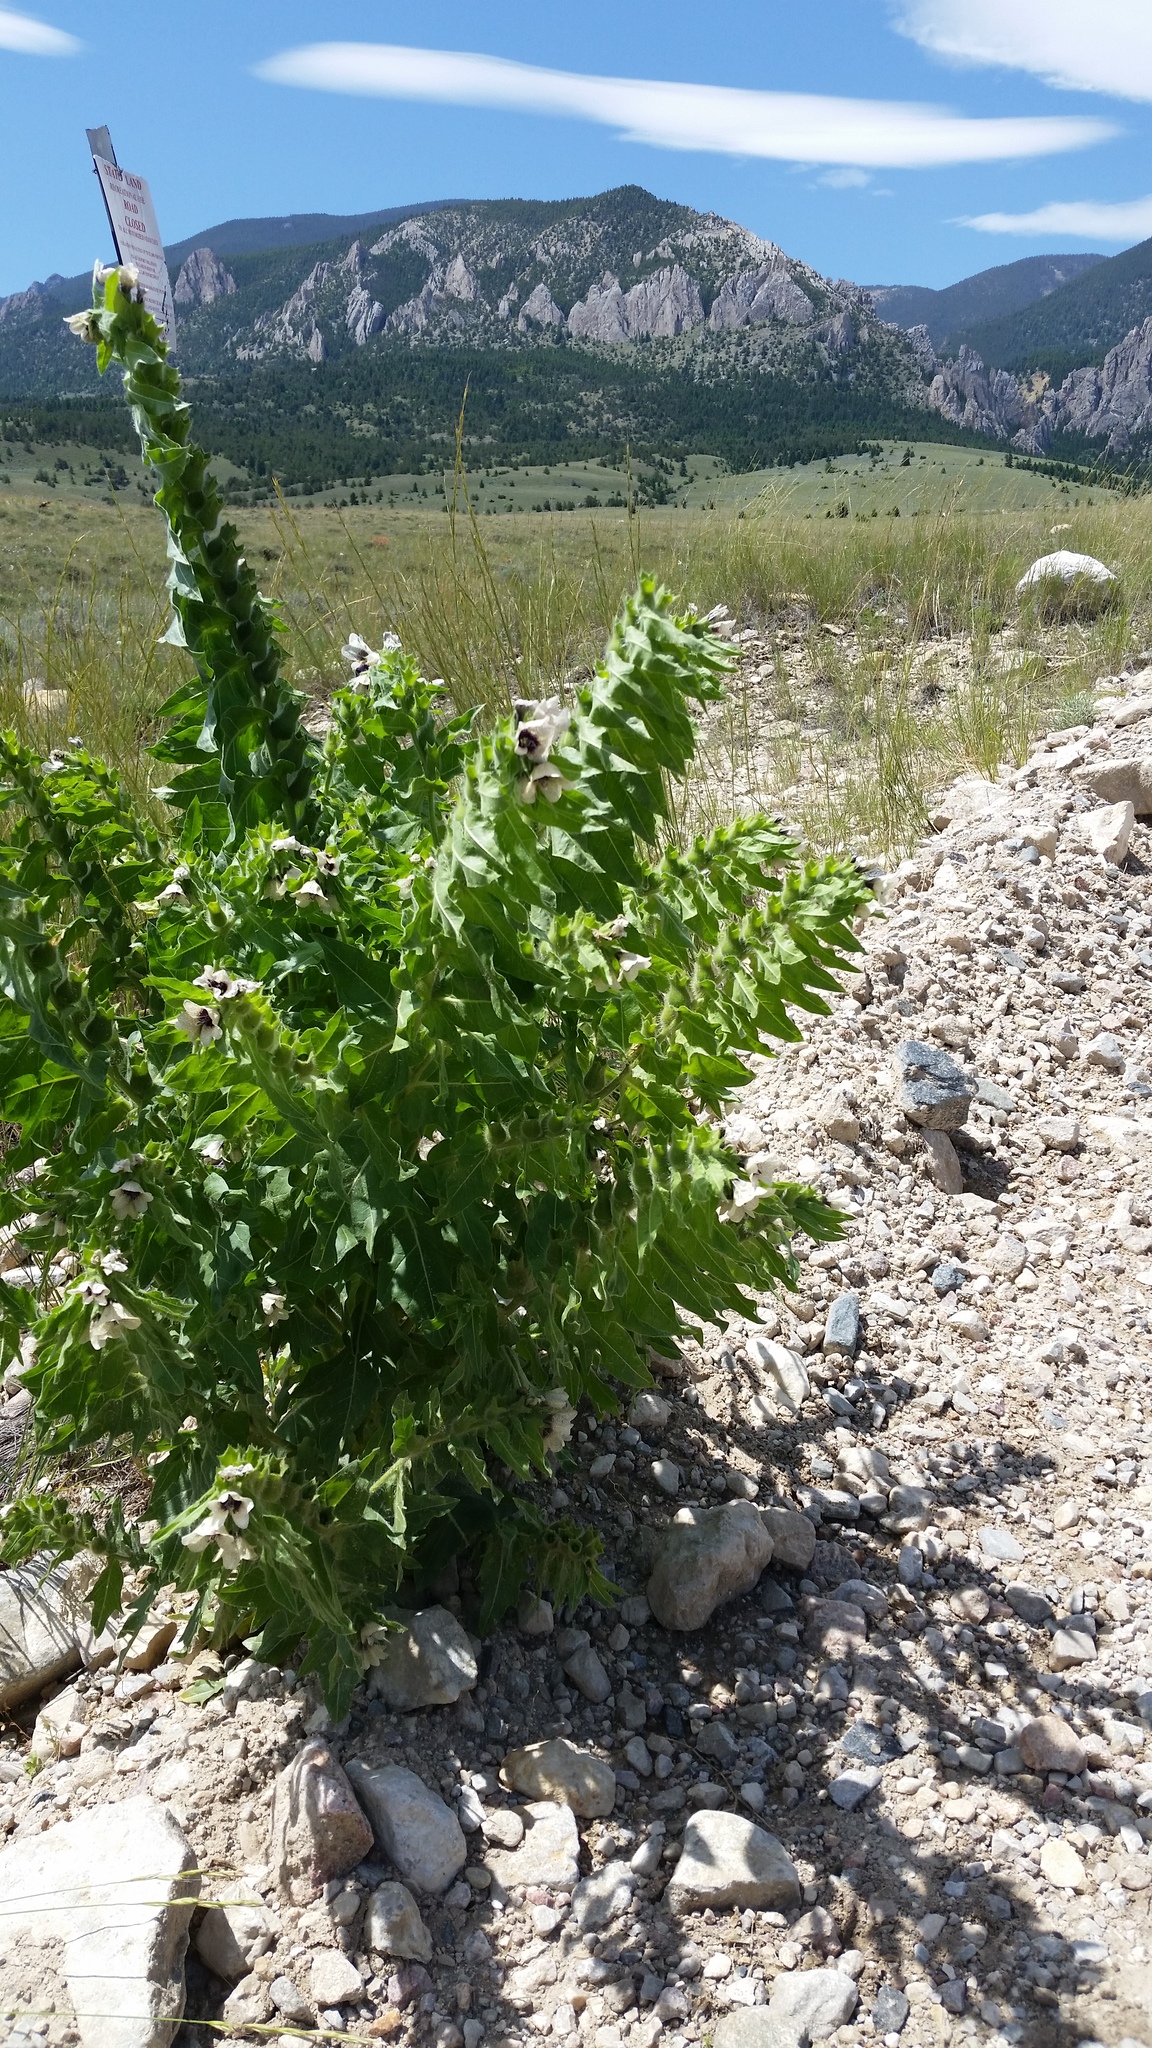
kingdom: Plantae
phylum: Tracheophyta
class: Magnoliopsida
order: Solanales
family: Solanaceae
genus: Hyoscyamus
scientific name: Hyoscyamus niger
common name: Henbane
